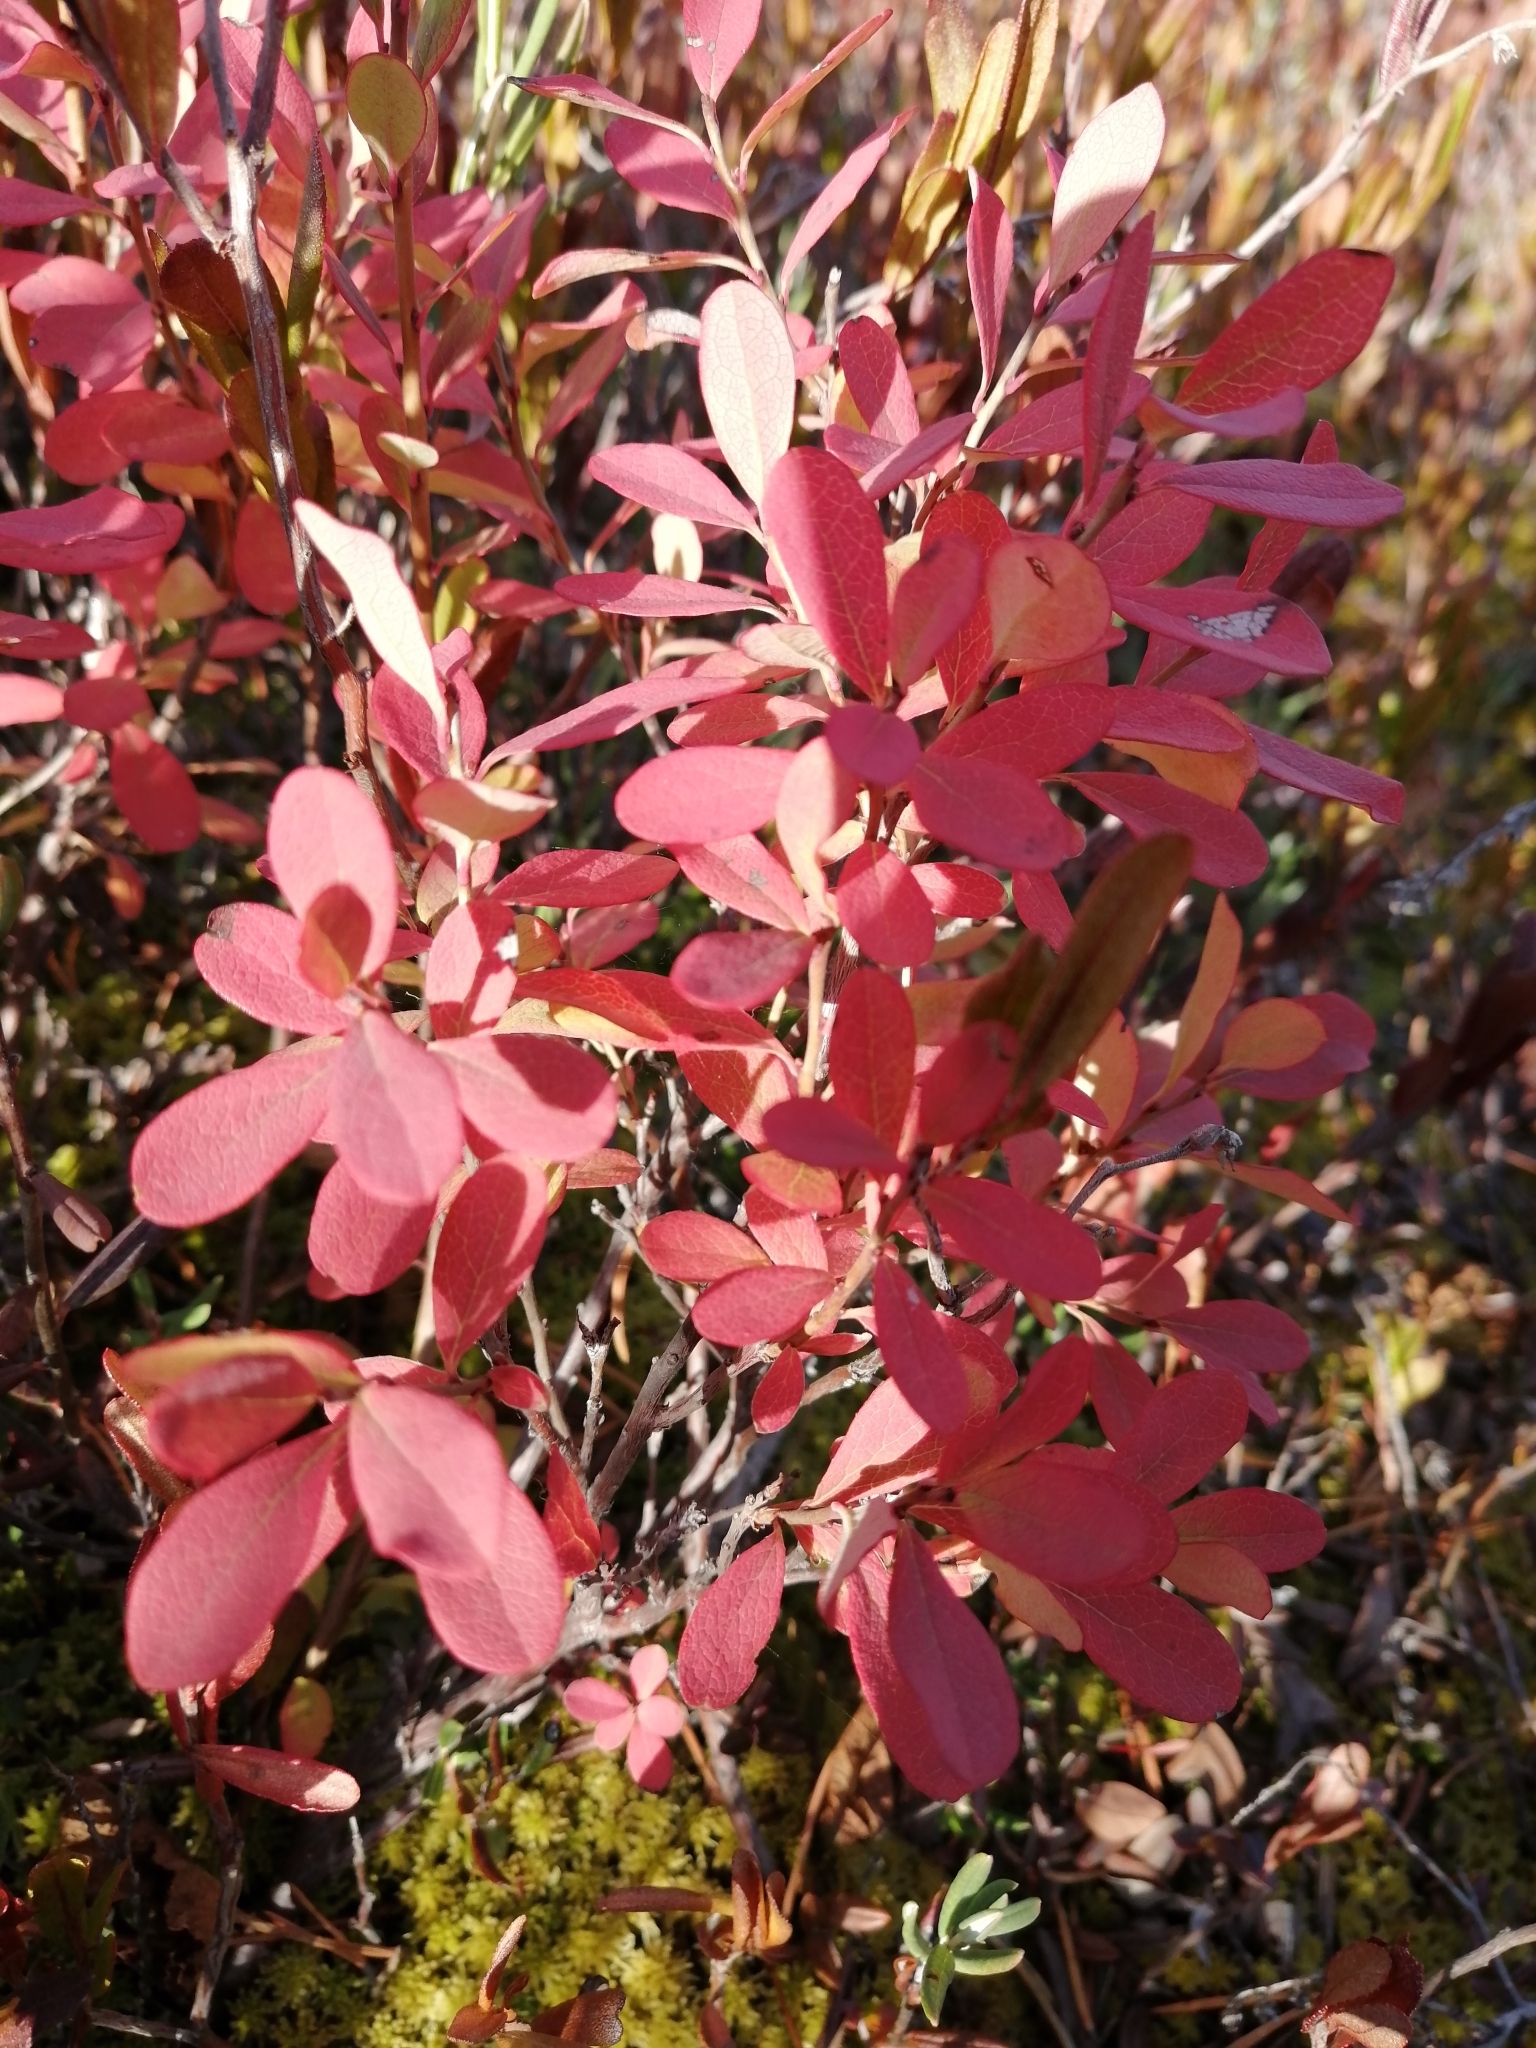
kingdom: Plantae
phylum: Tracheophyta
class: Magnoliopsida
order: Ericales
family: Ericaceae
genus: Vaccinium
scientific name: Vaccinium uliginosum
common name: Bog bilberry
